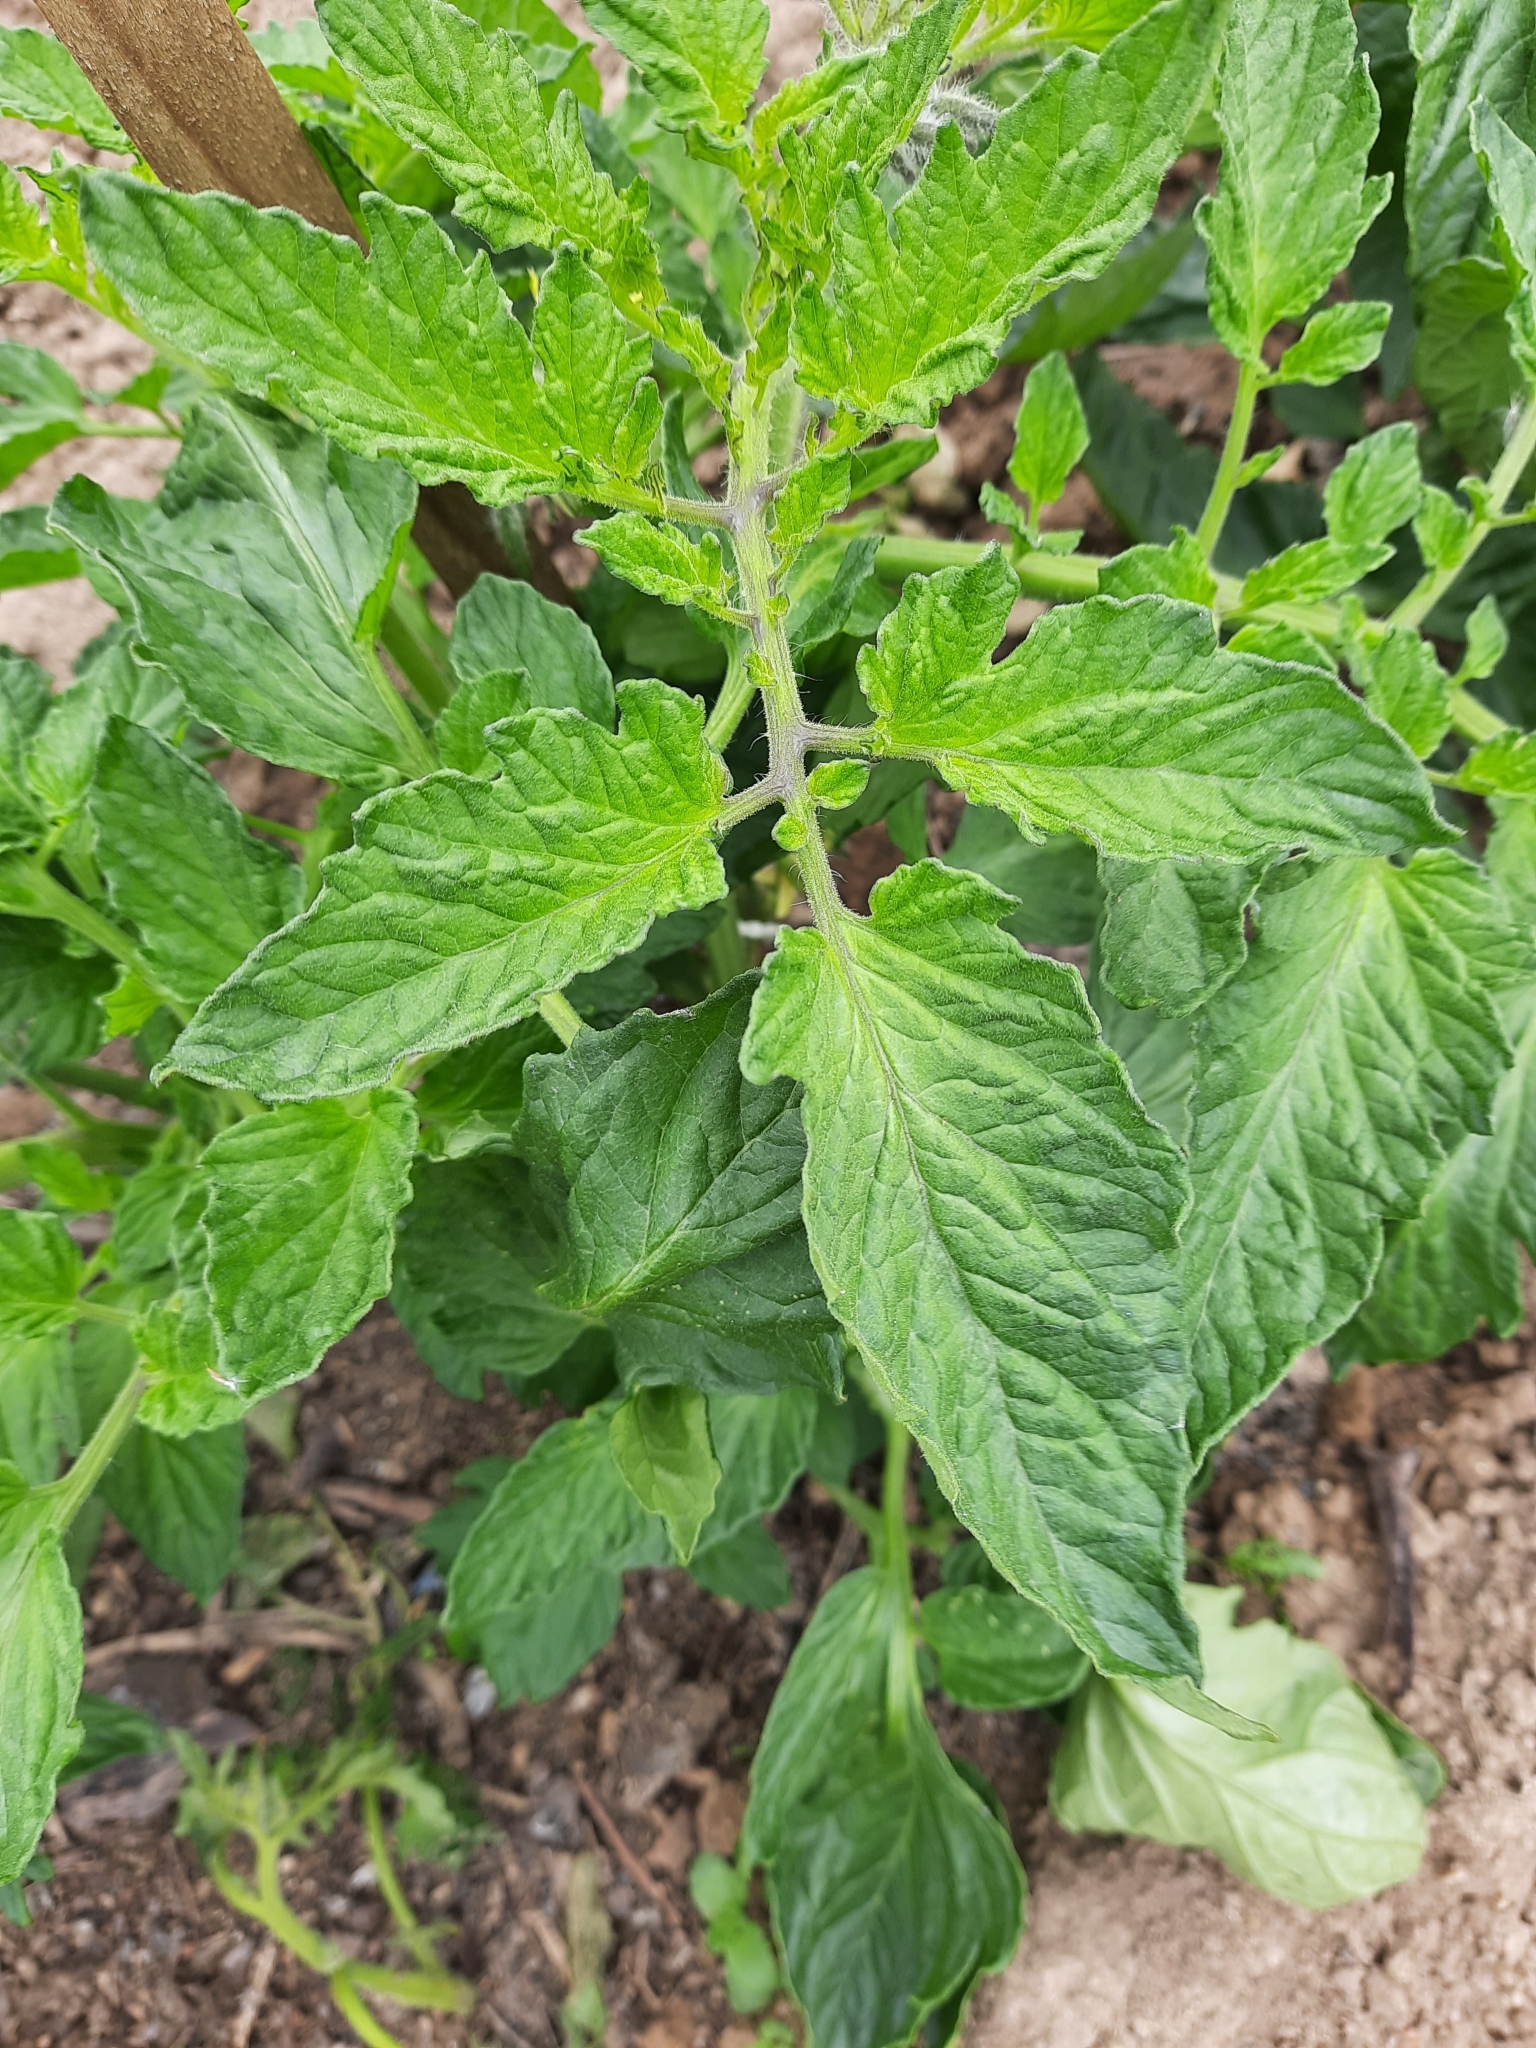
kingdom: Plantae
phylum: Tracheophyta
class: Magnoliopsida
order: Solanales
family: Solanaceae
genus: Solanum
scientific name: Solanum lycopersicum
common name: Garden tomato
